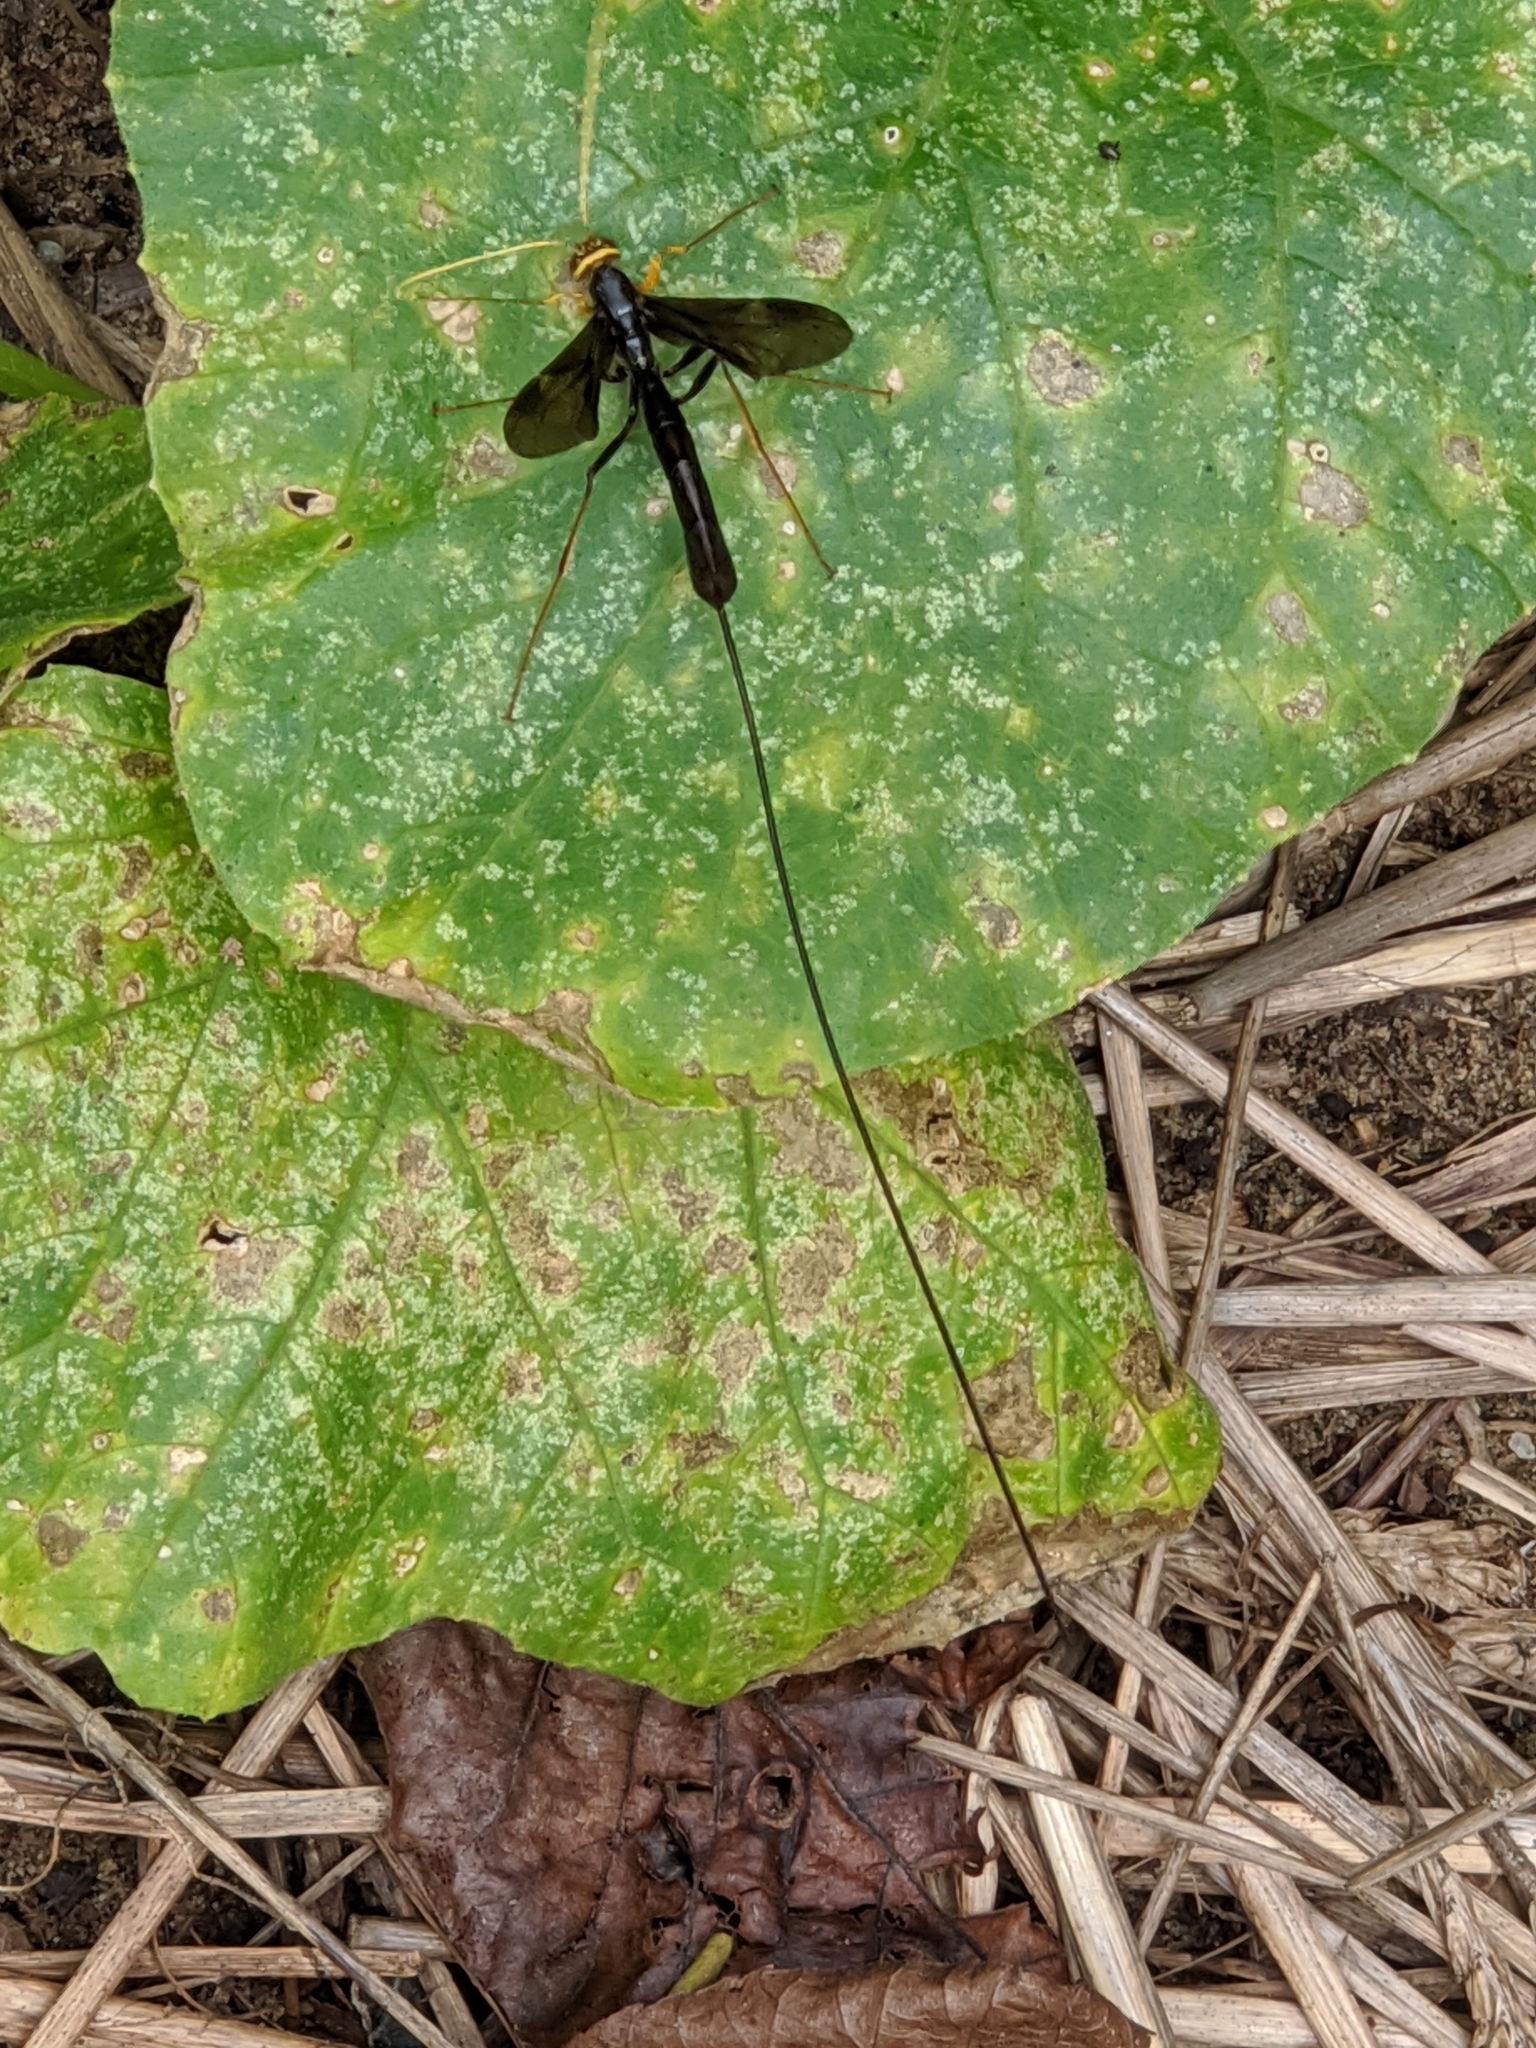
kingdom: Animalia
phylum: Arthropoda
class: Insecta
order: Hymenoptera
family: Ichneumonidae
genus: Megarhyssa
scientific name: Megarhyssa atrata
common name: Black giant ichneumonid wasp
